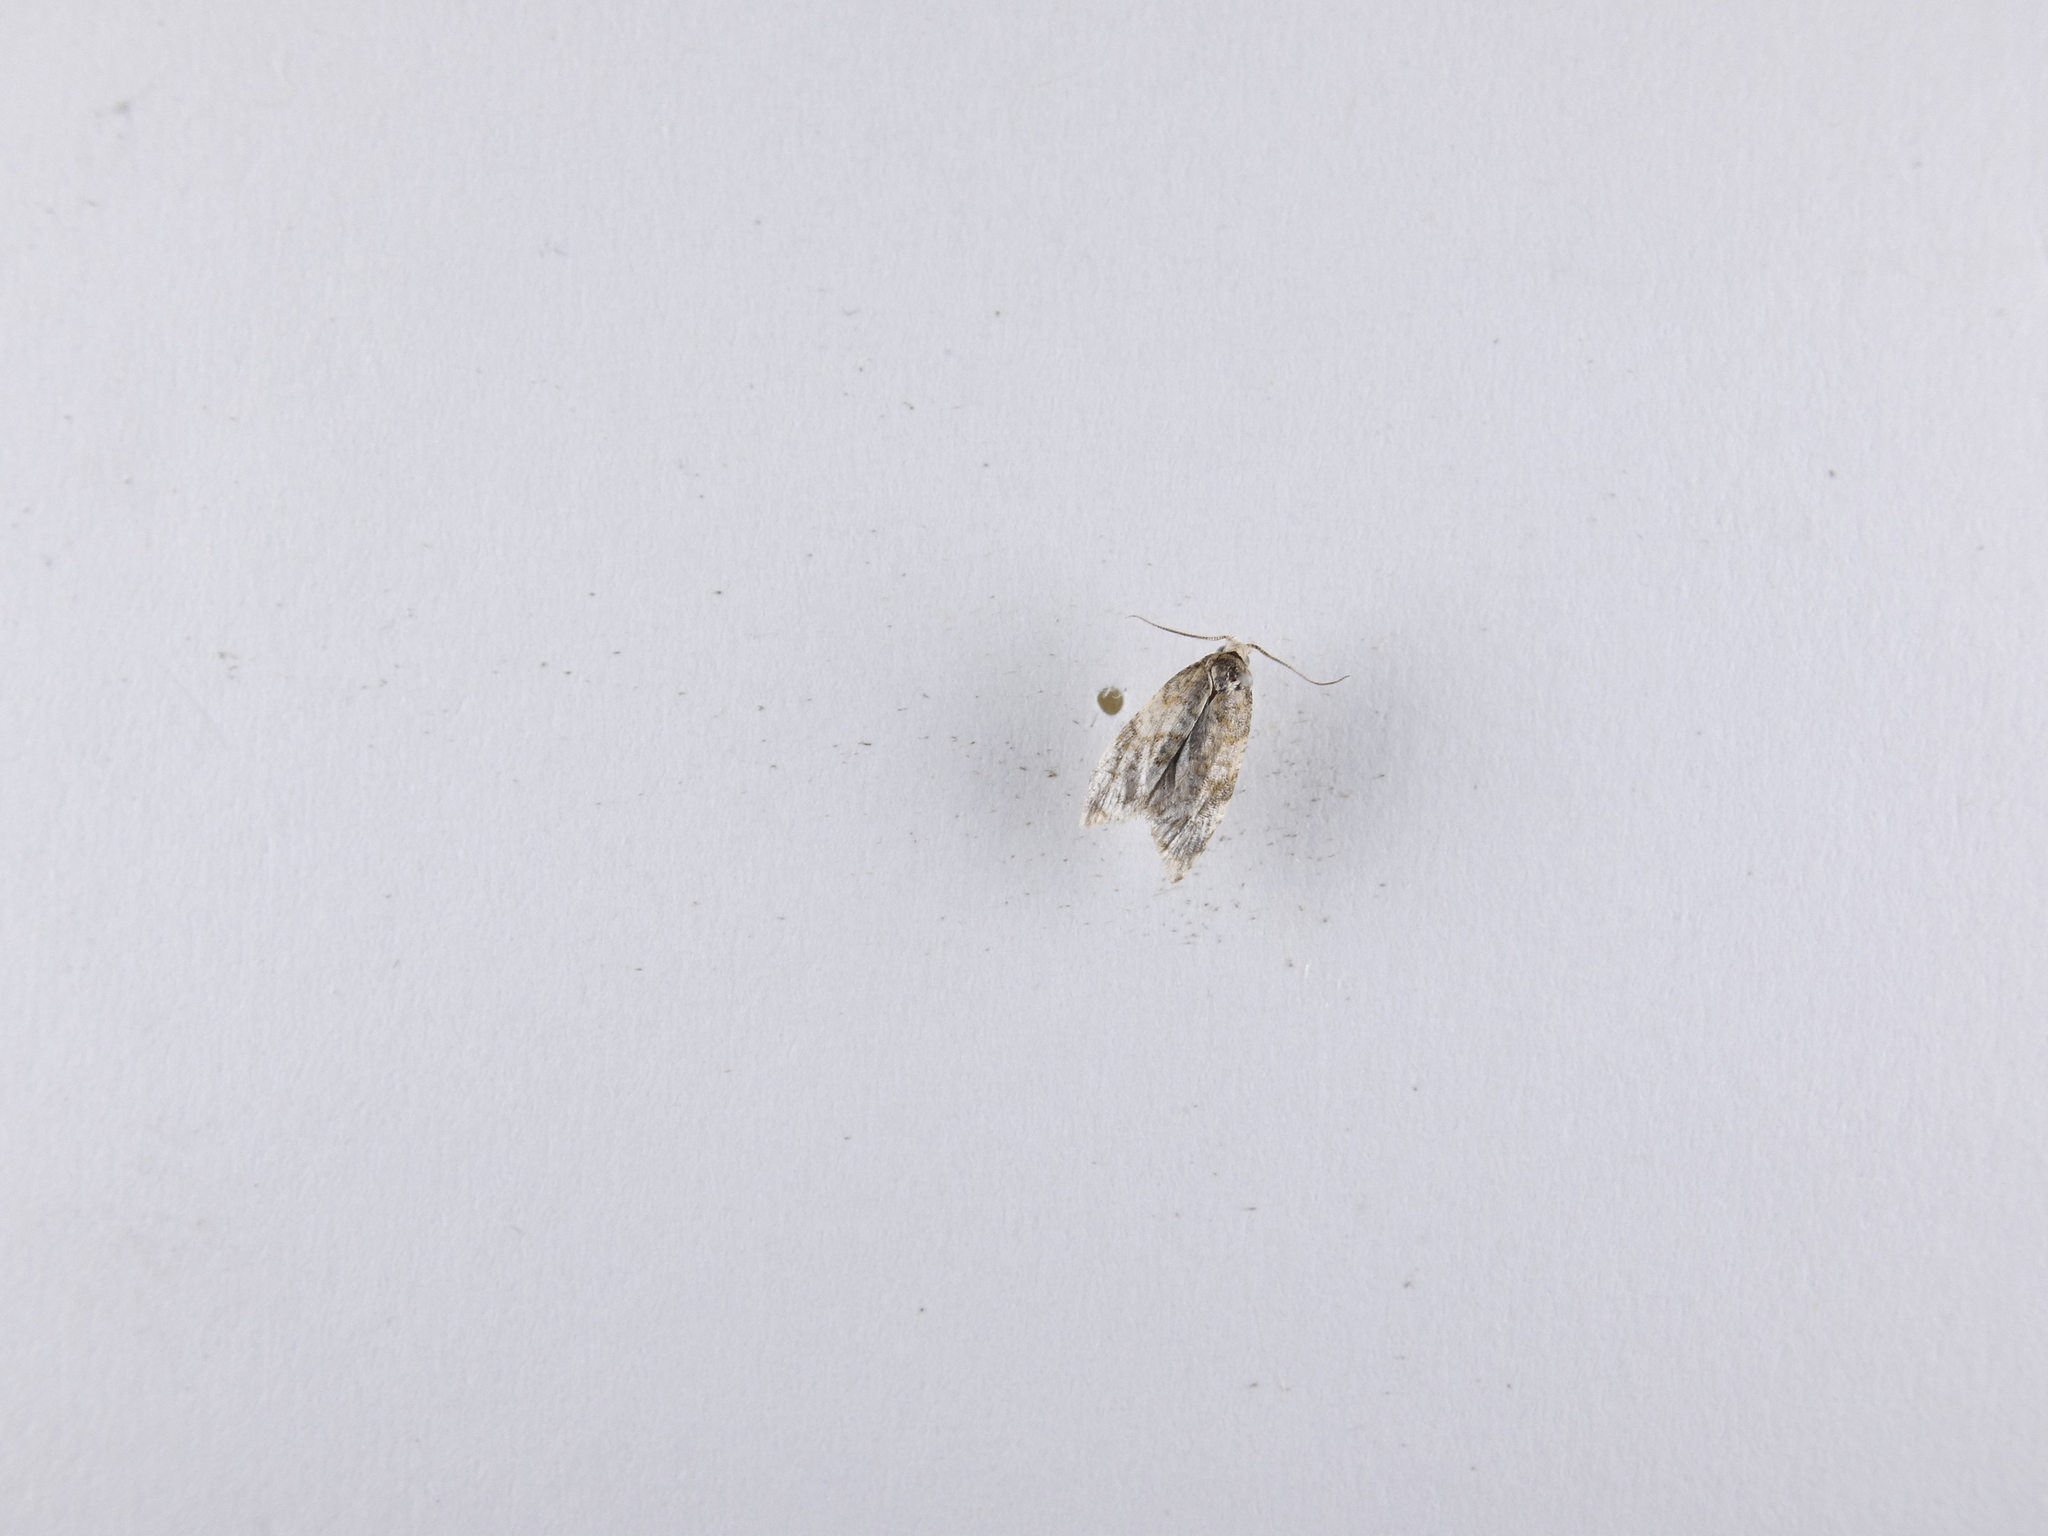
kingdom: Animalia
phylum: Arthropoda
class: Insecta
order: Lepidoptera
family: Tortricidae
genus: Dipterina
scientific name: Dipterina imbriferana
